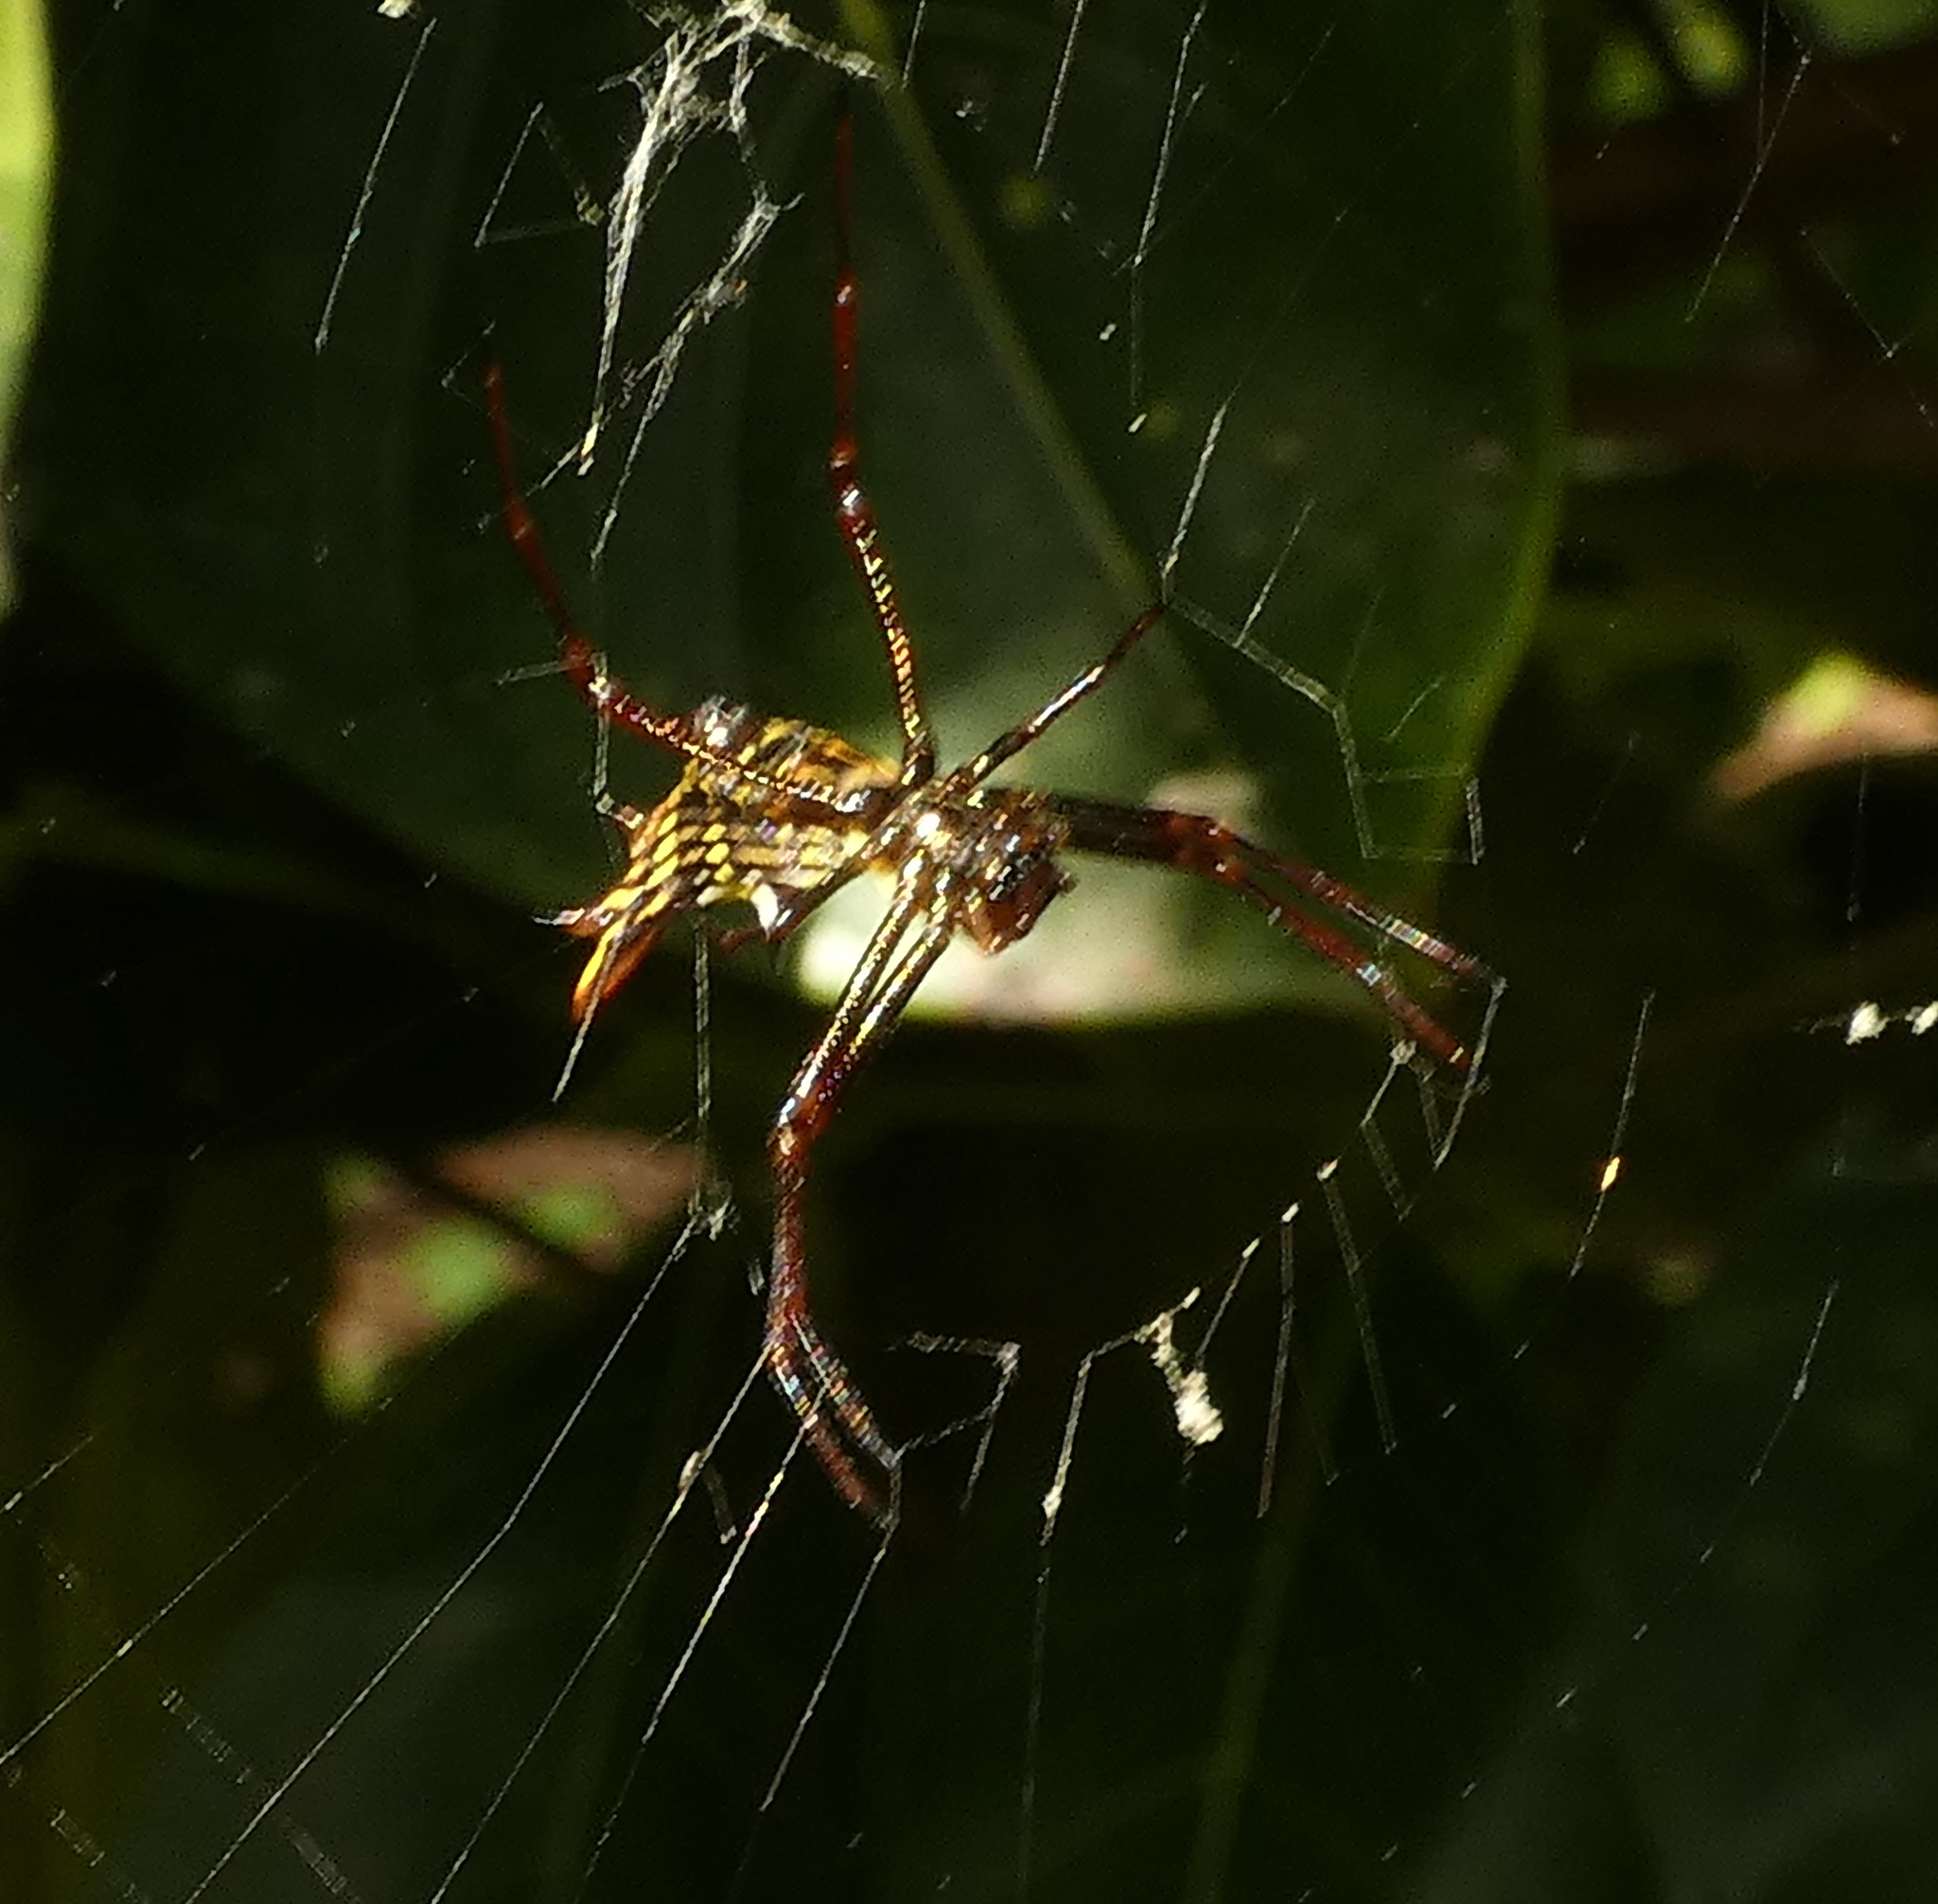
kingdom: Animalia
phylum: Arthropoda
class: Arachnida
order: Araneae
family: Araneidae
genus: Micrathena
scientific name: Micrathena fissispina
